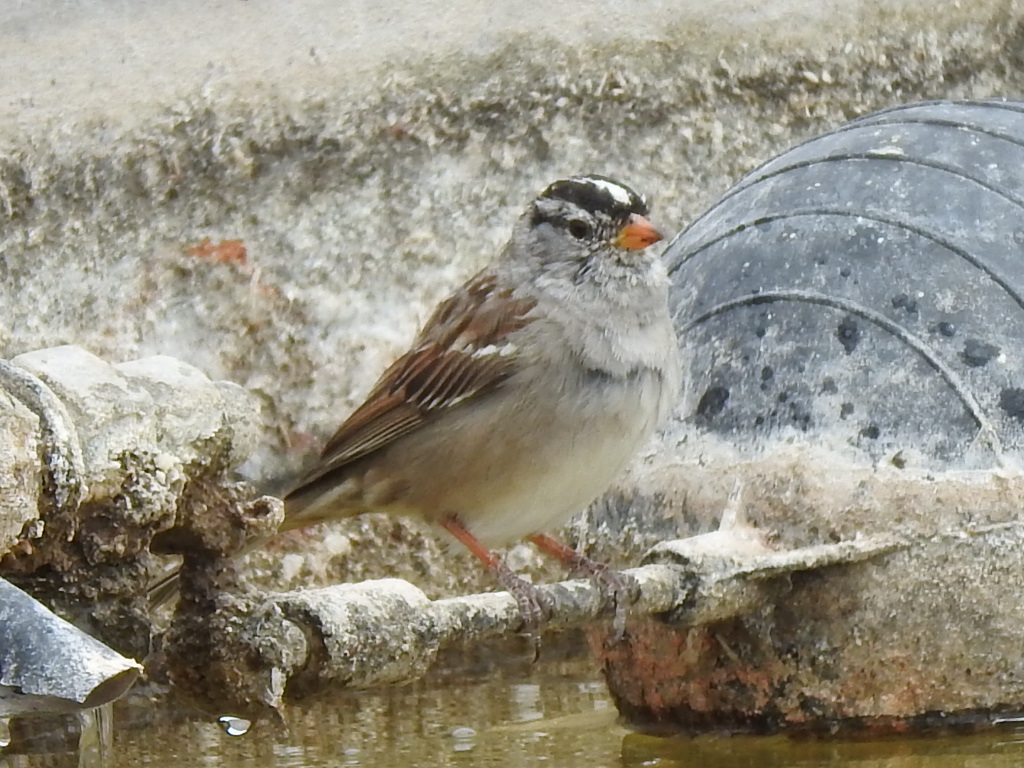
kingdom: Animalia
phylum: Chordata
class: Aves
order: Passeriformes
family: Passerellidae
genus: Zonotrichia
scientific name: Zonotrichia leucophrys
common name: White-crowned sparrow
